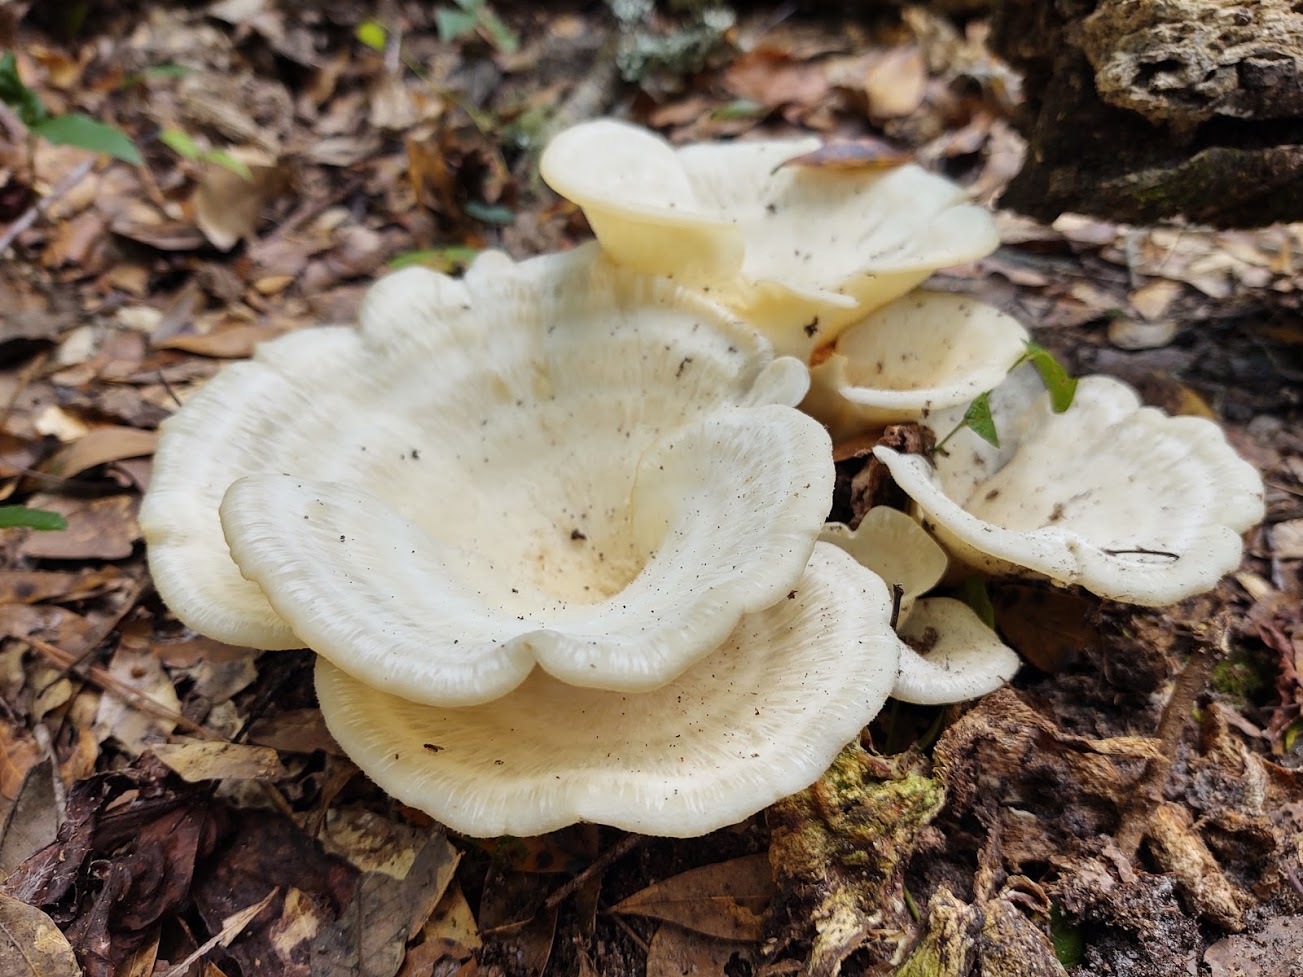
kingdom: Fungi
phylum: Basidiomycota
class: Agaricomycetes
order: Polyporales
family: Polyporaceae
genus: Favolus
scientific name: Favolus tenuiculus
